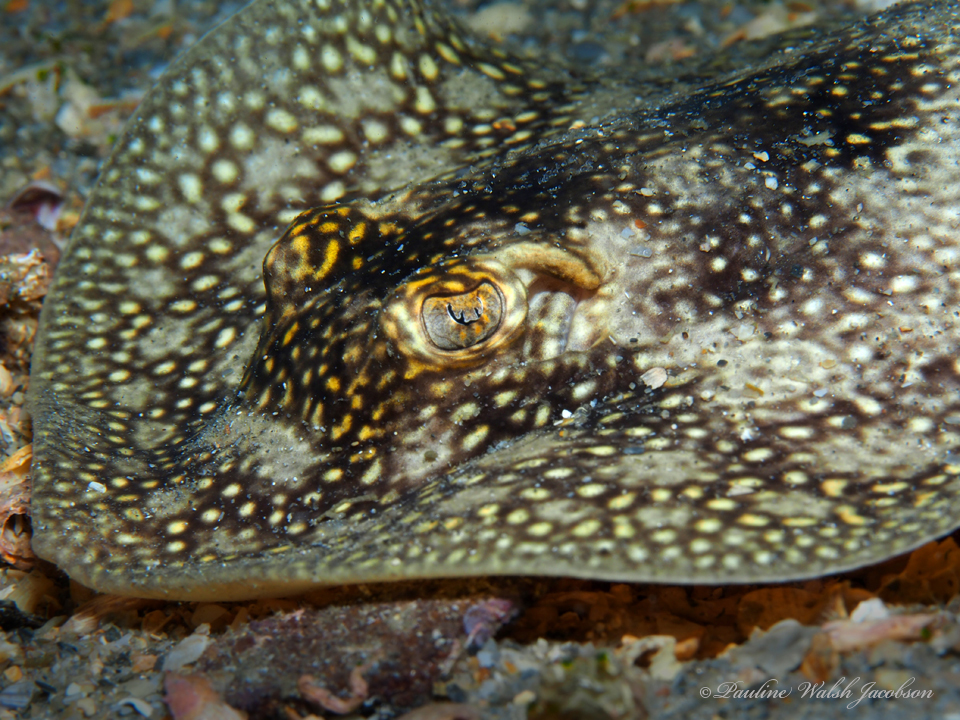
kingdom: Animalia
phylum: Chordata
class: Elasmobranchii
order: Myliobatiformes
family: Urotrygonidae
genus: Urobatis
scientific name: Urobatis jamaicensis
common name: Yellow stingray
